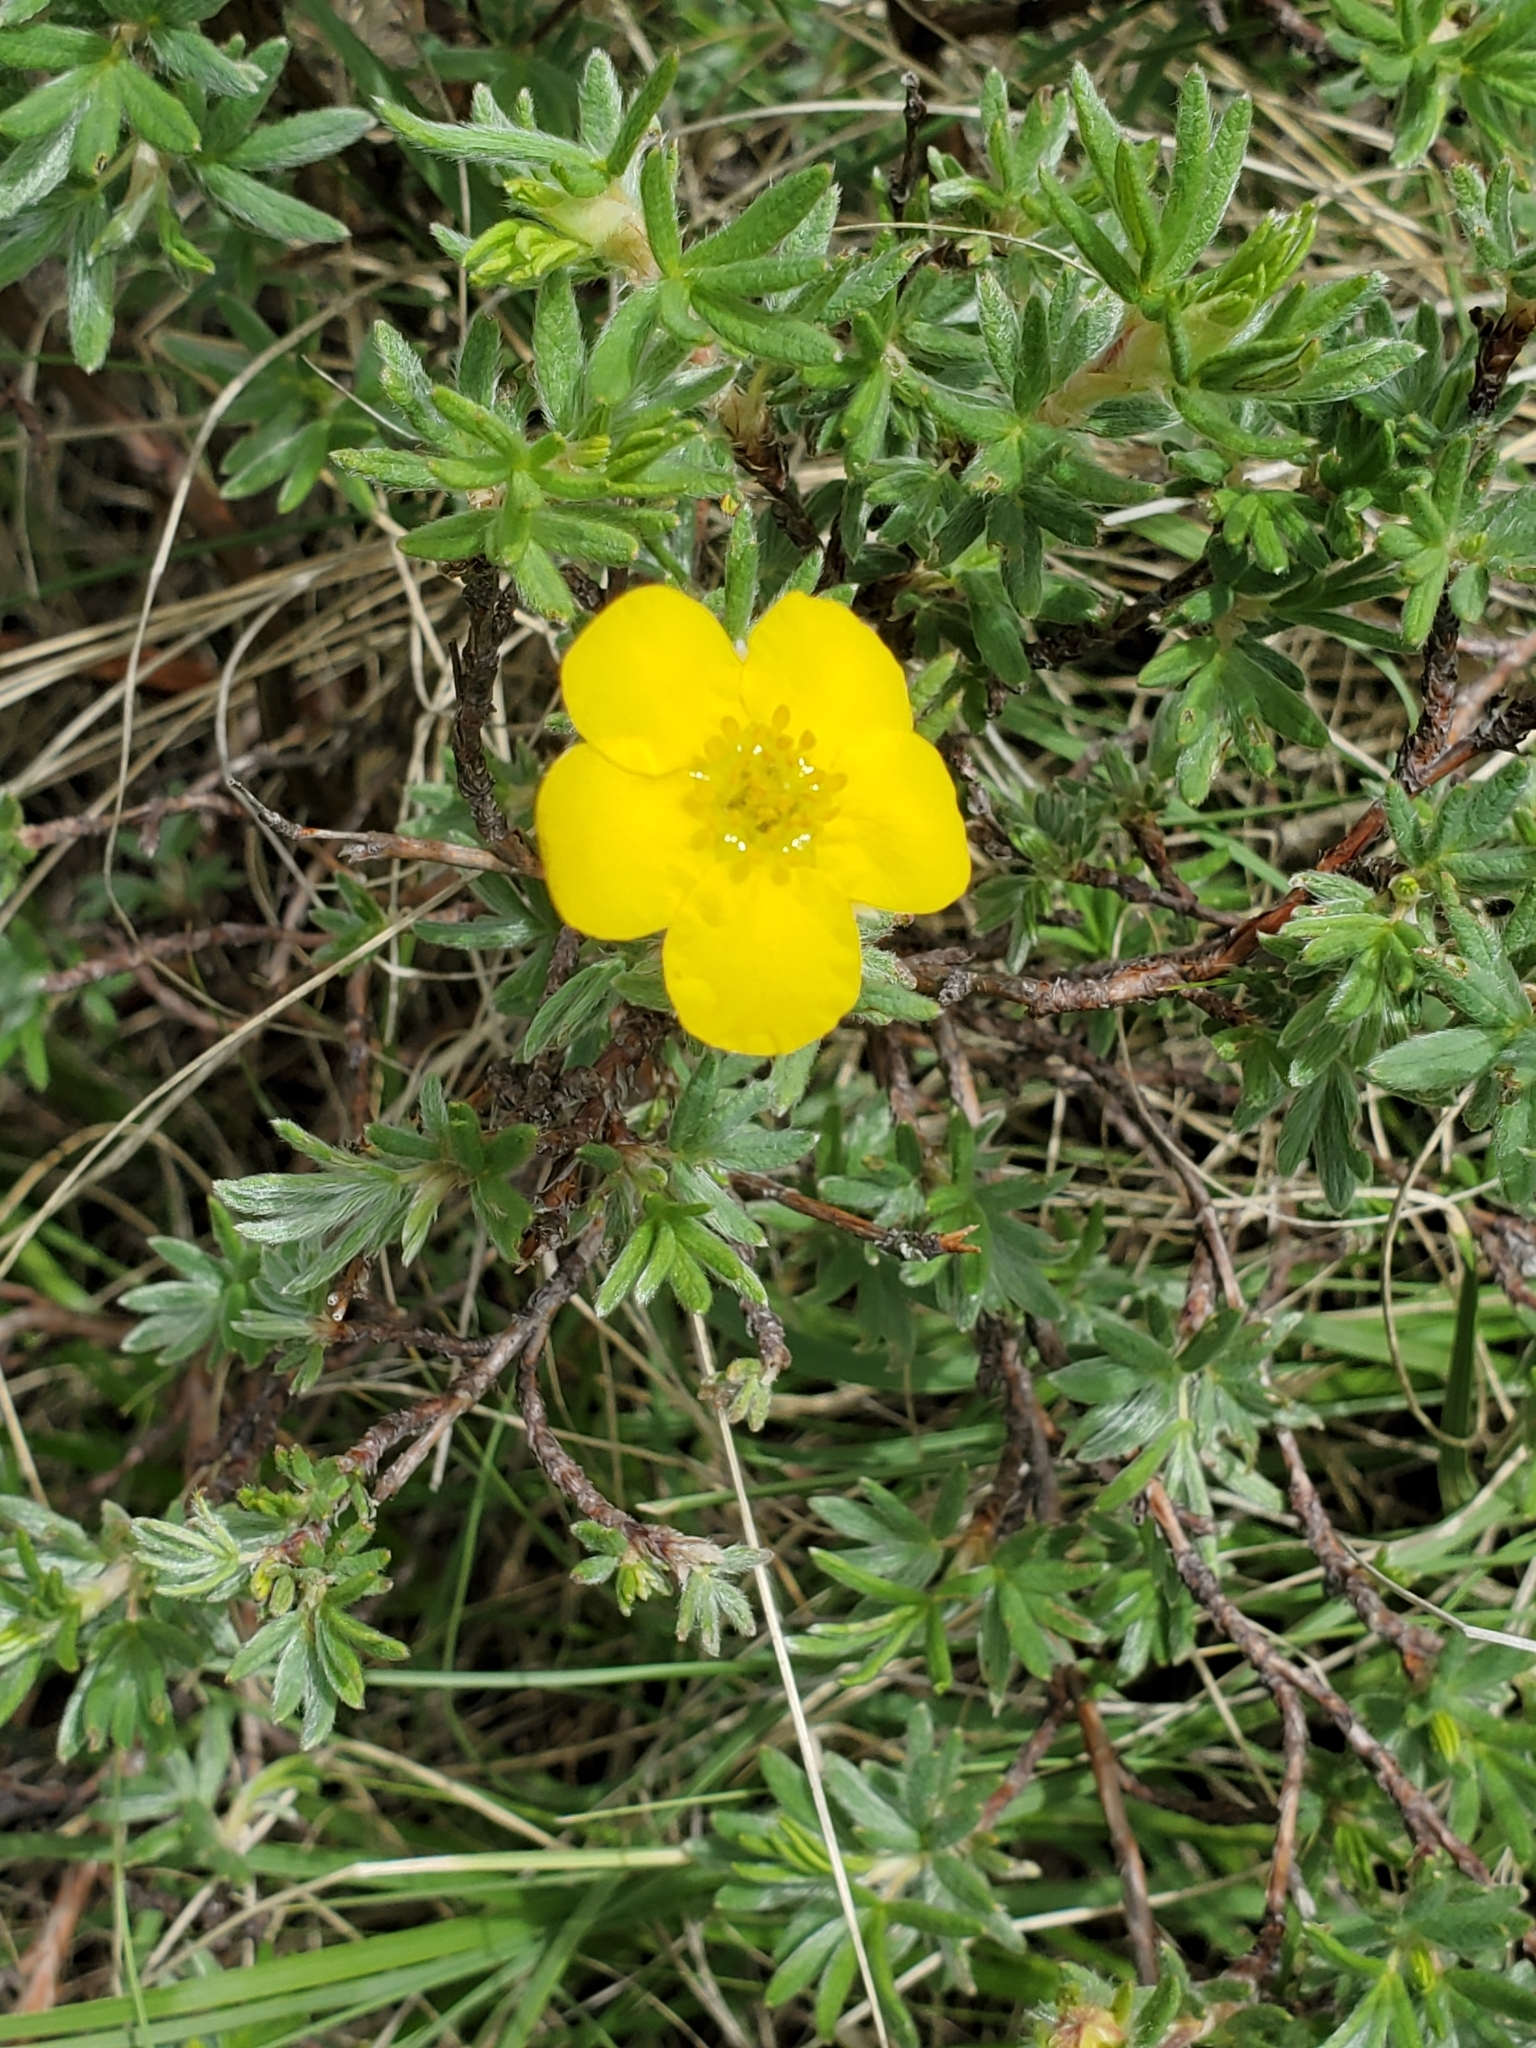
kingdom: Plantae
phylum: Tracheophyta
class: Magnoliopsida
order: Rosales
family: Rosaceae
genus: Dasiphora
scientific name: Dasiphora fruticosa
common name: Shrubby cinquefoil
